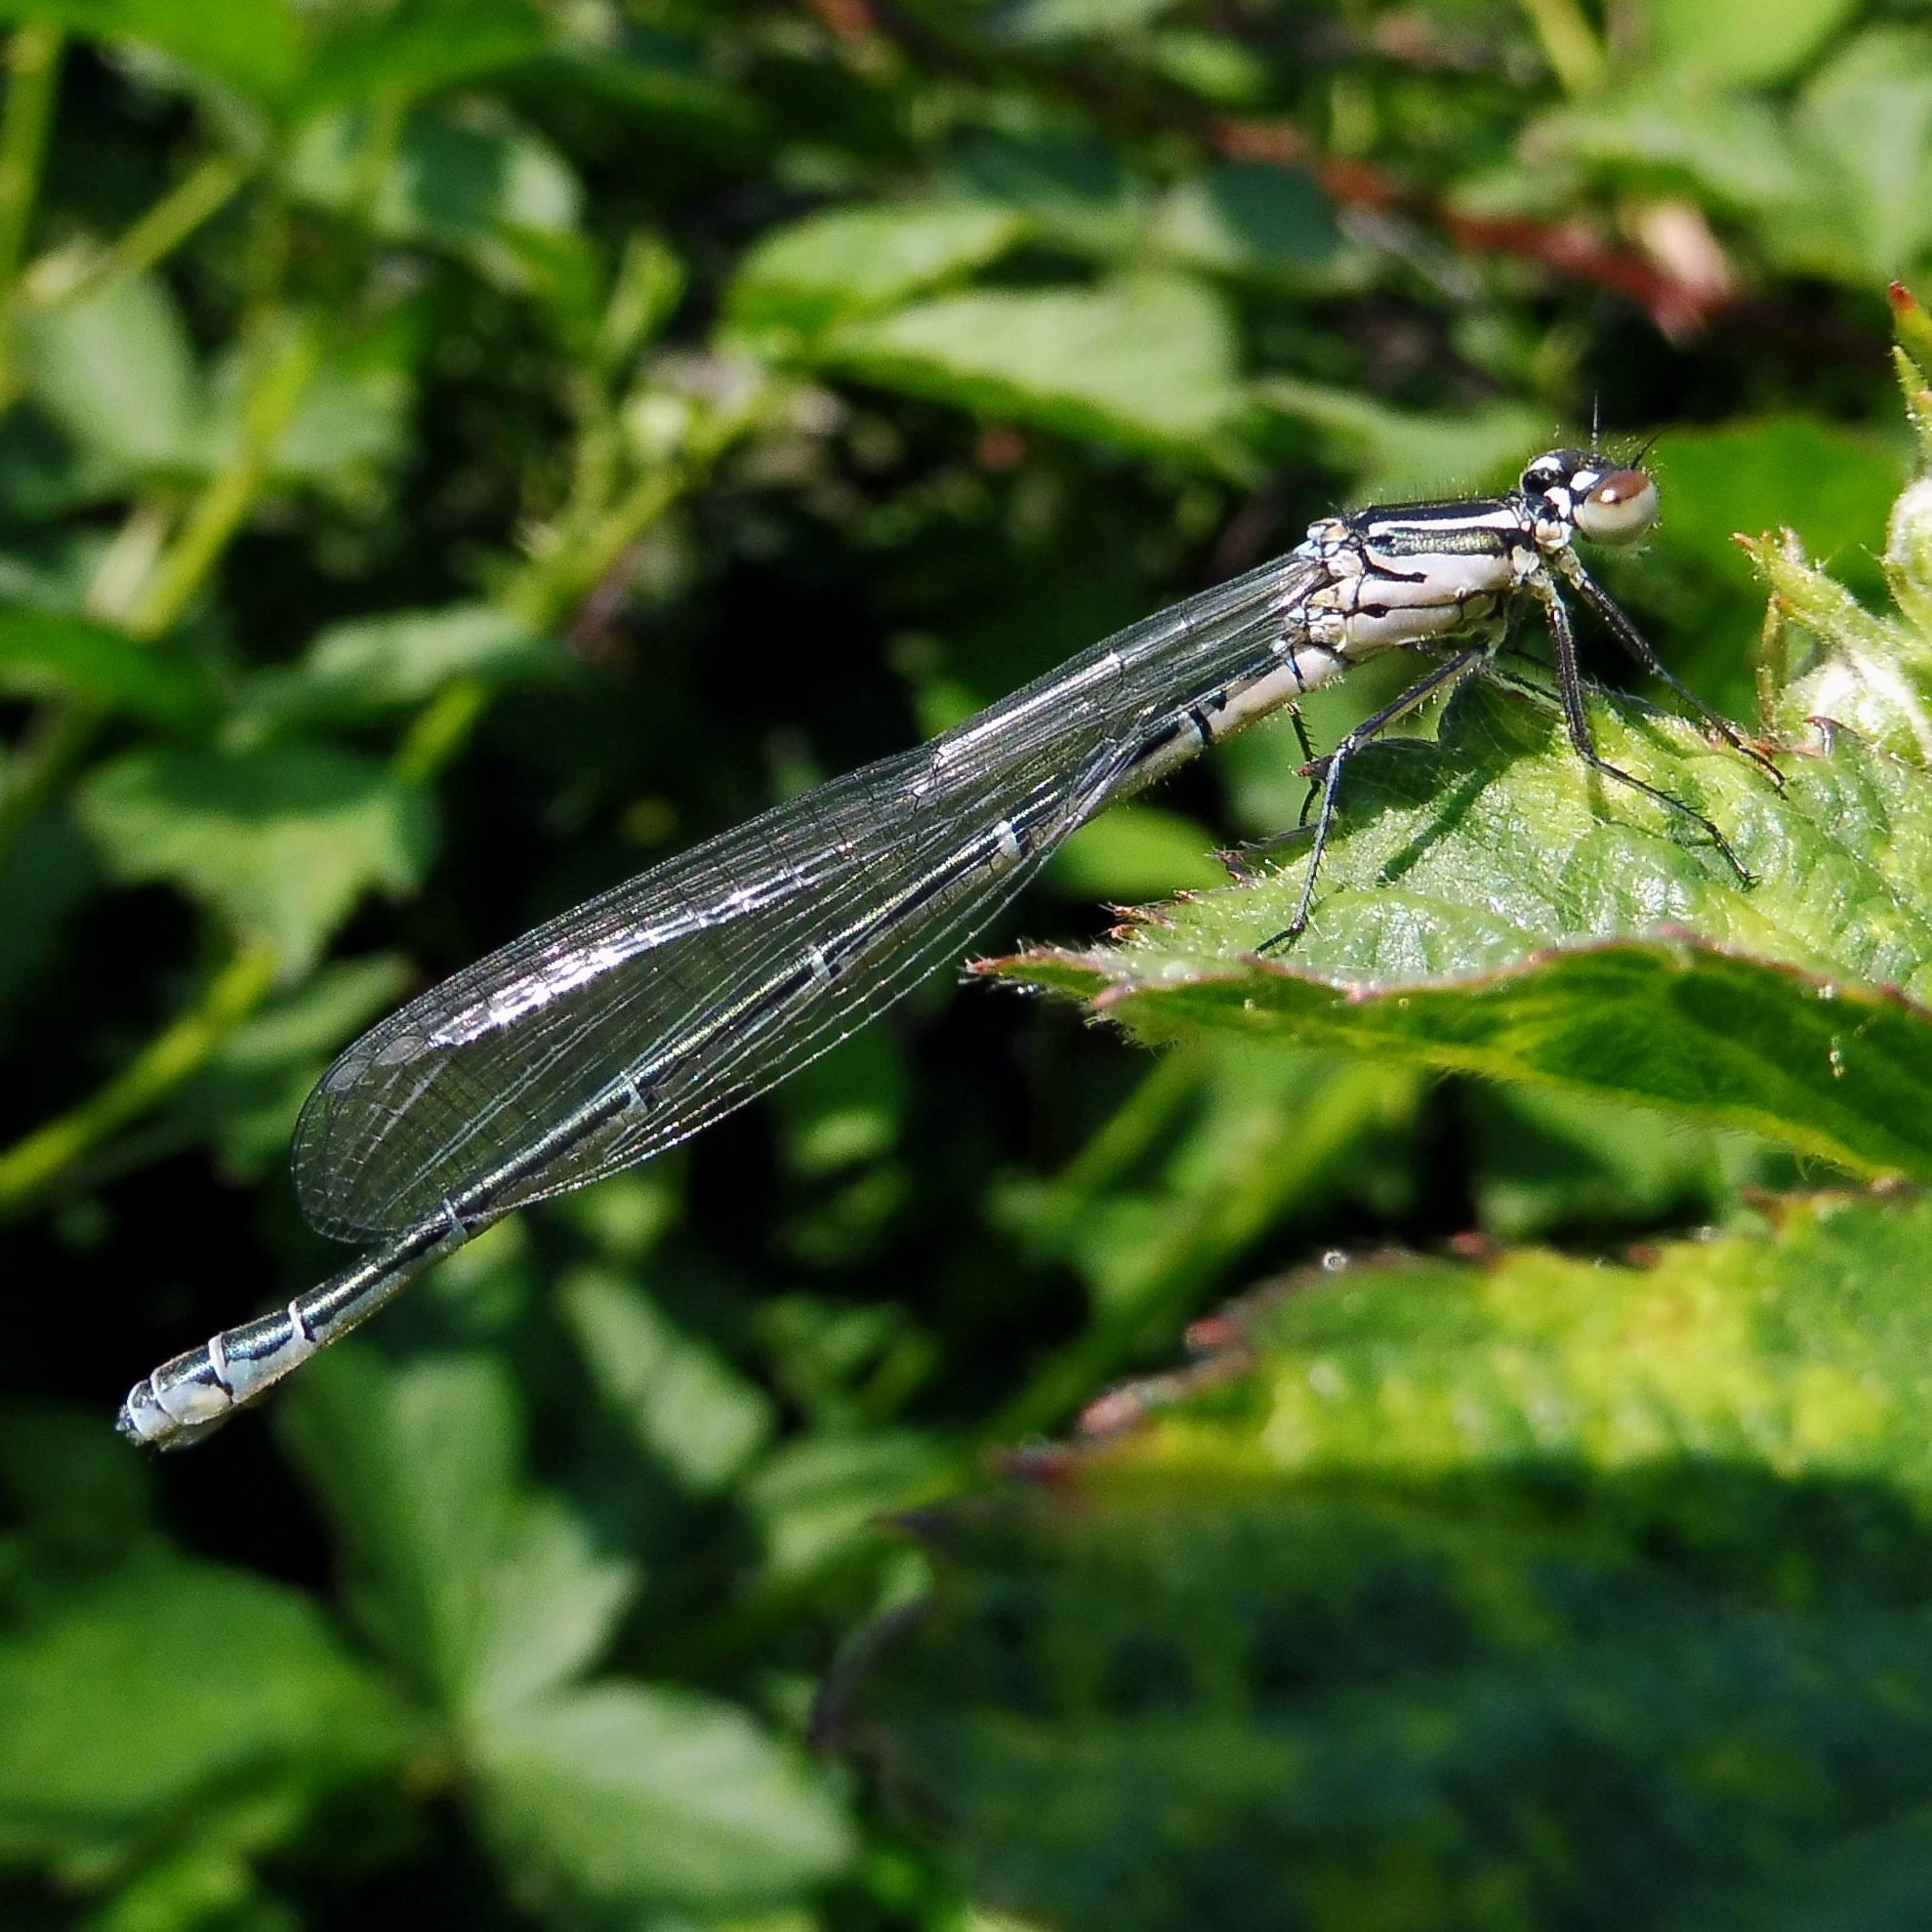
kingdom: Animalia
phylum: Arthropoda
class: Insecta
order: Odonata
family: Coenagrionidae
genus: Coenagrion
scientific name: Coenagrion puella
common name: Azure damselfly
